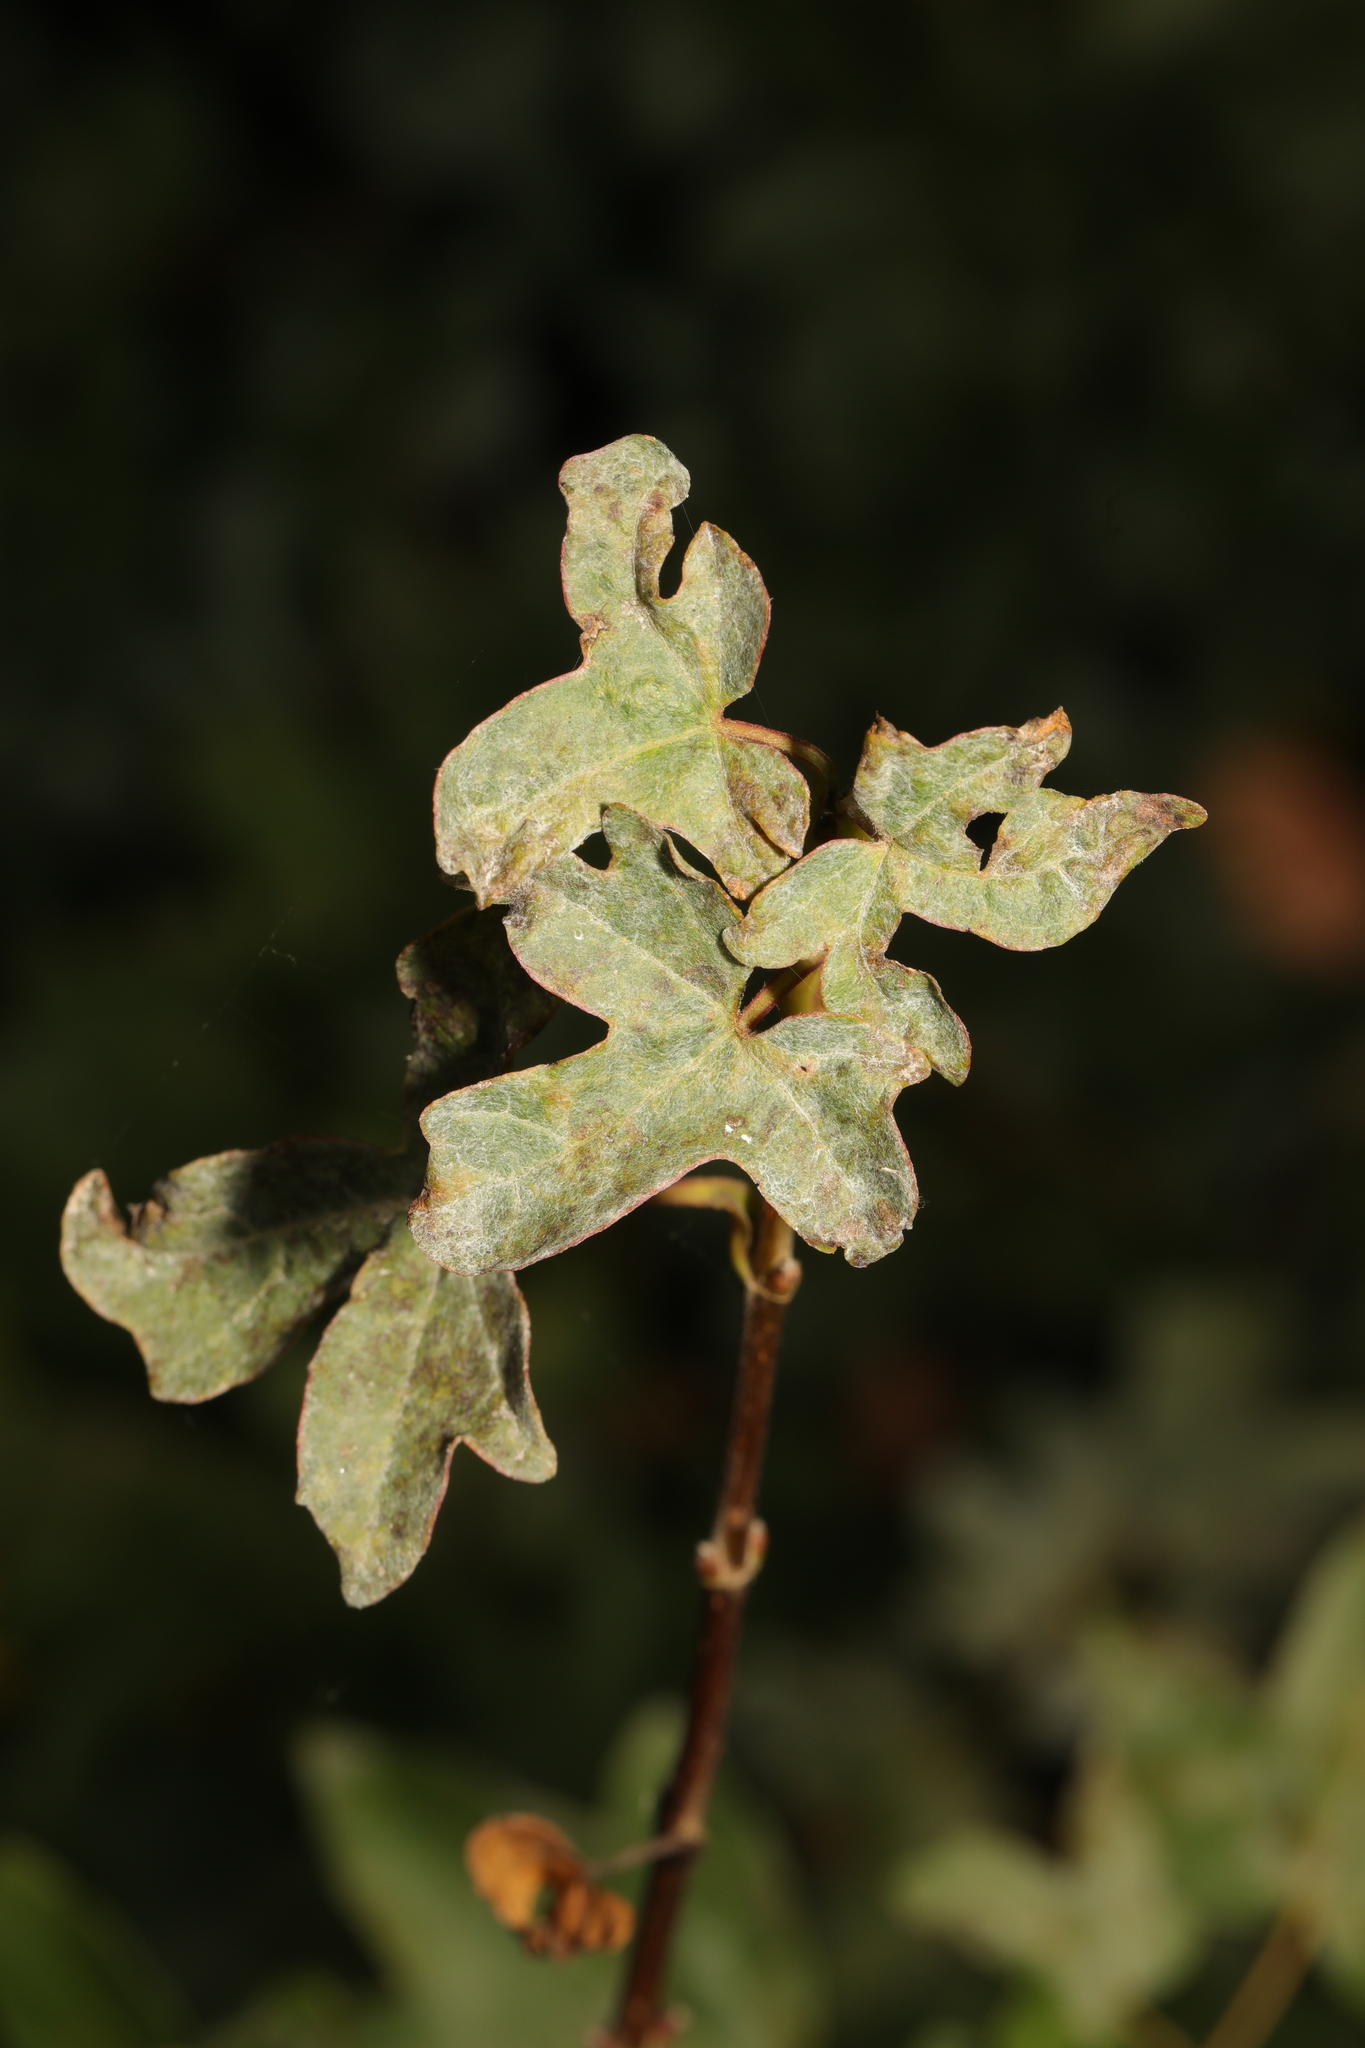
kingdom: Fungi
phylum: Ascomycota
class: Leotiomycetes
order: Helotiales
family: Erysiphaceae
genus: Sawadaea
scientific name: Sawadaea bicornis
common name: Maple mildew
